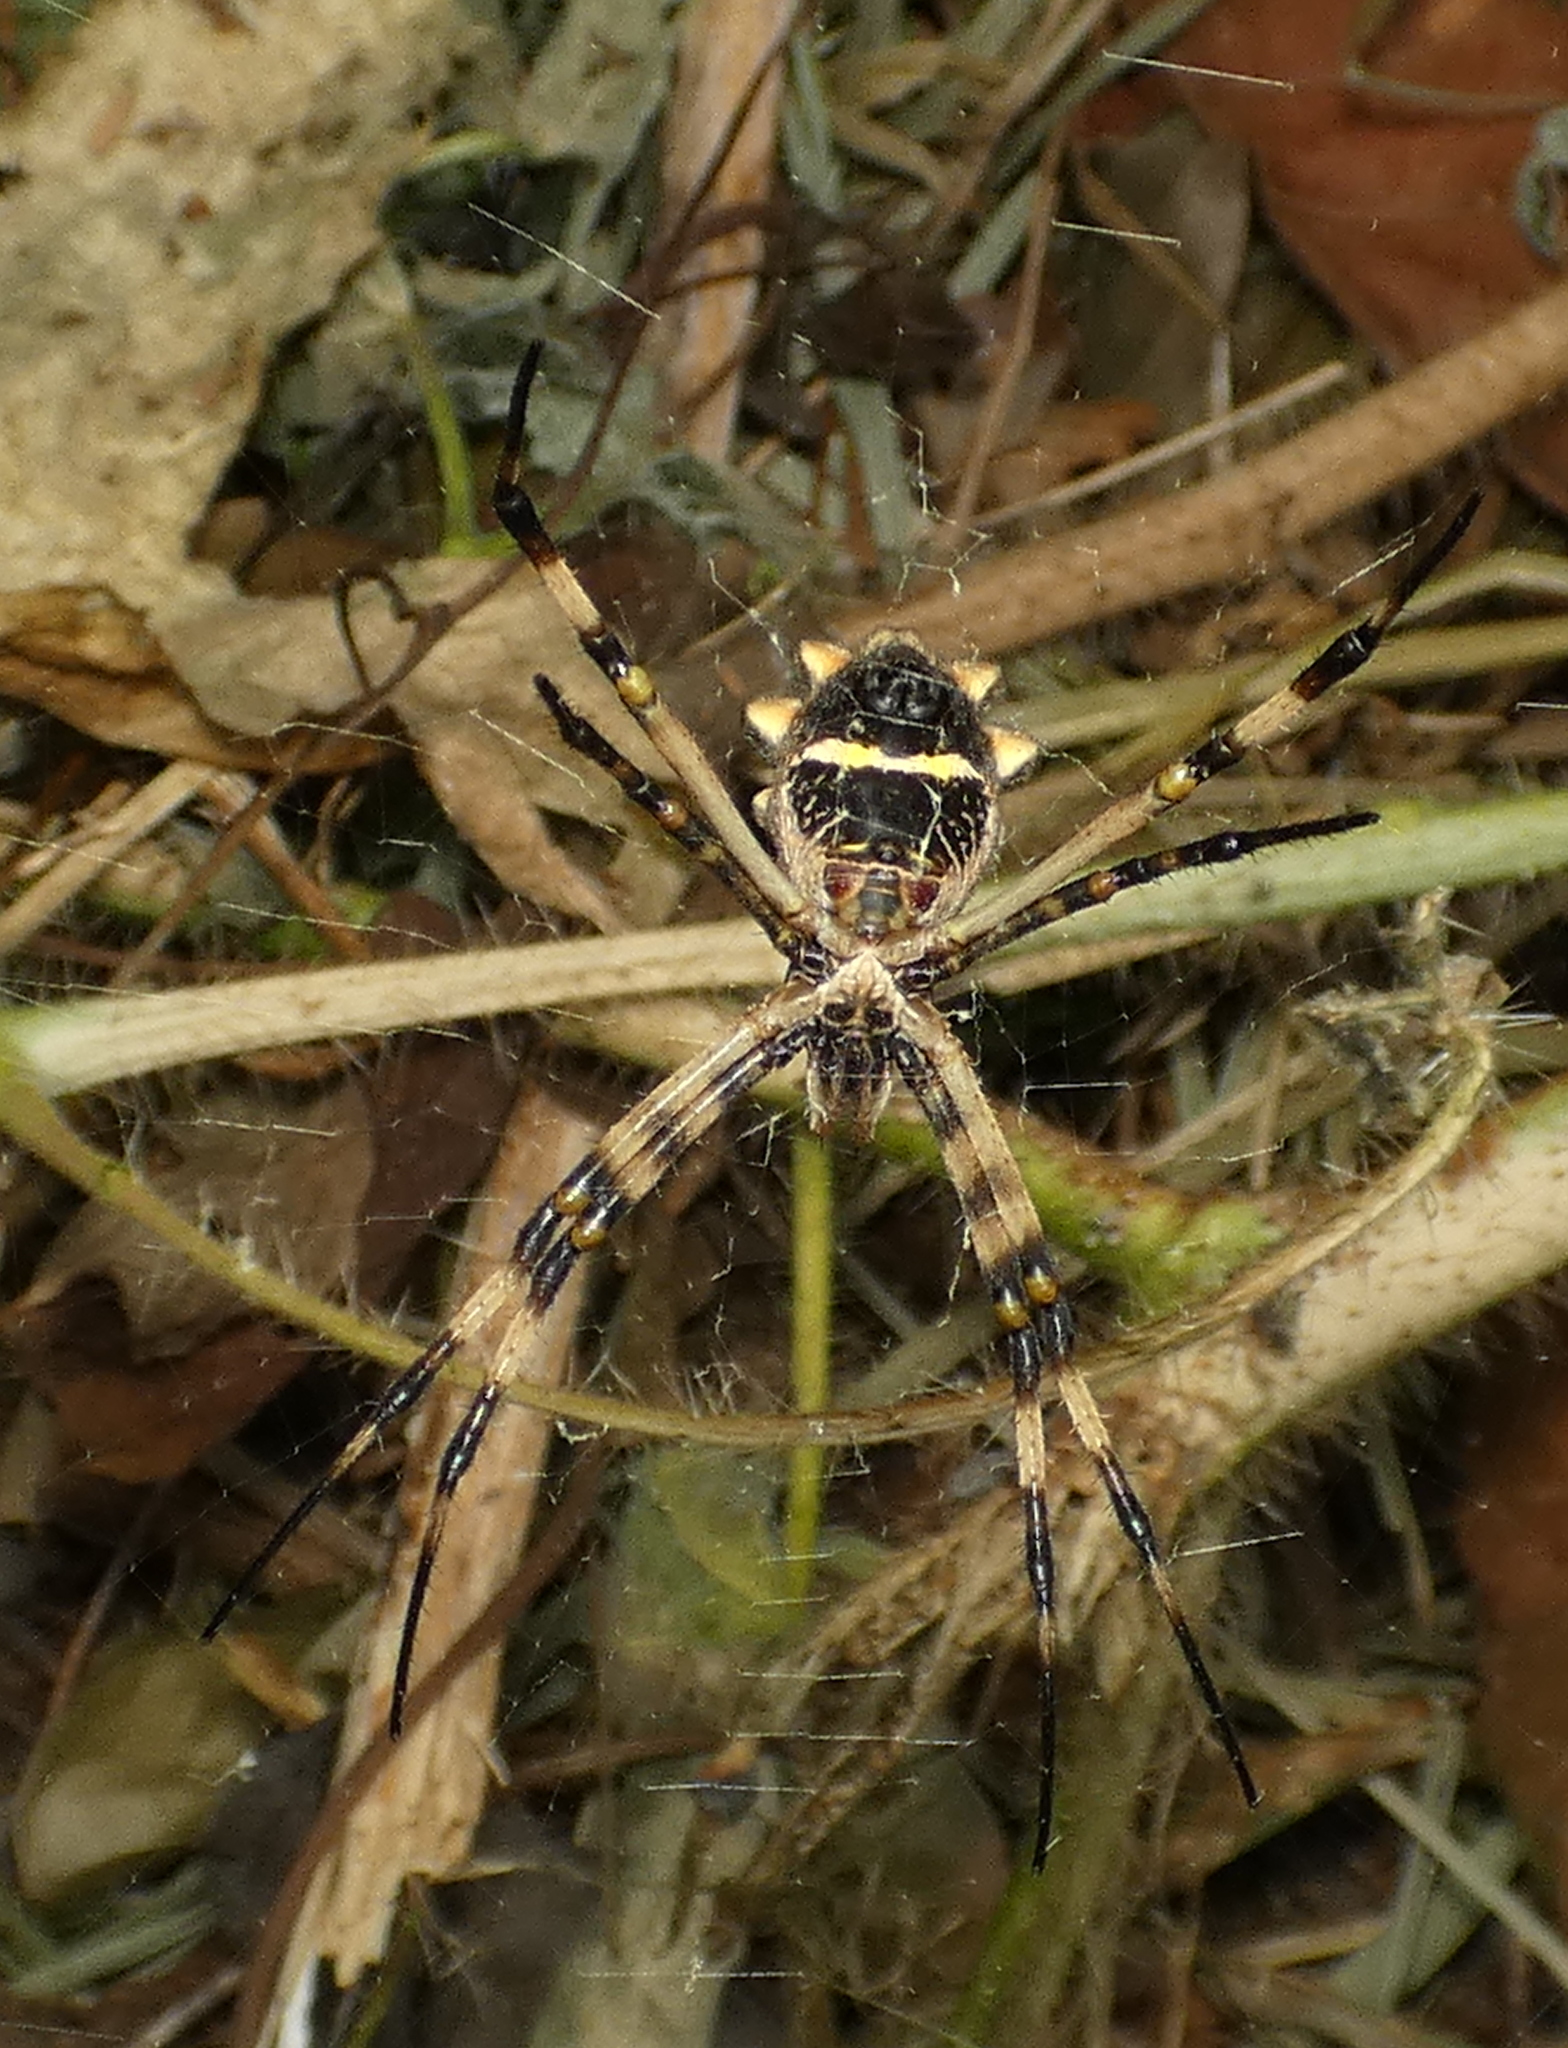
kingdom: Animalia
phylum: Arthropoda
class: Arachnida
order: Araneae
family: Araneidae
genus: Argiope
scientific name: Argiope argentata
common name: Orb weavers
